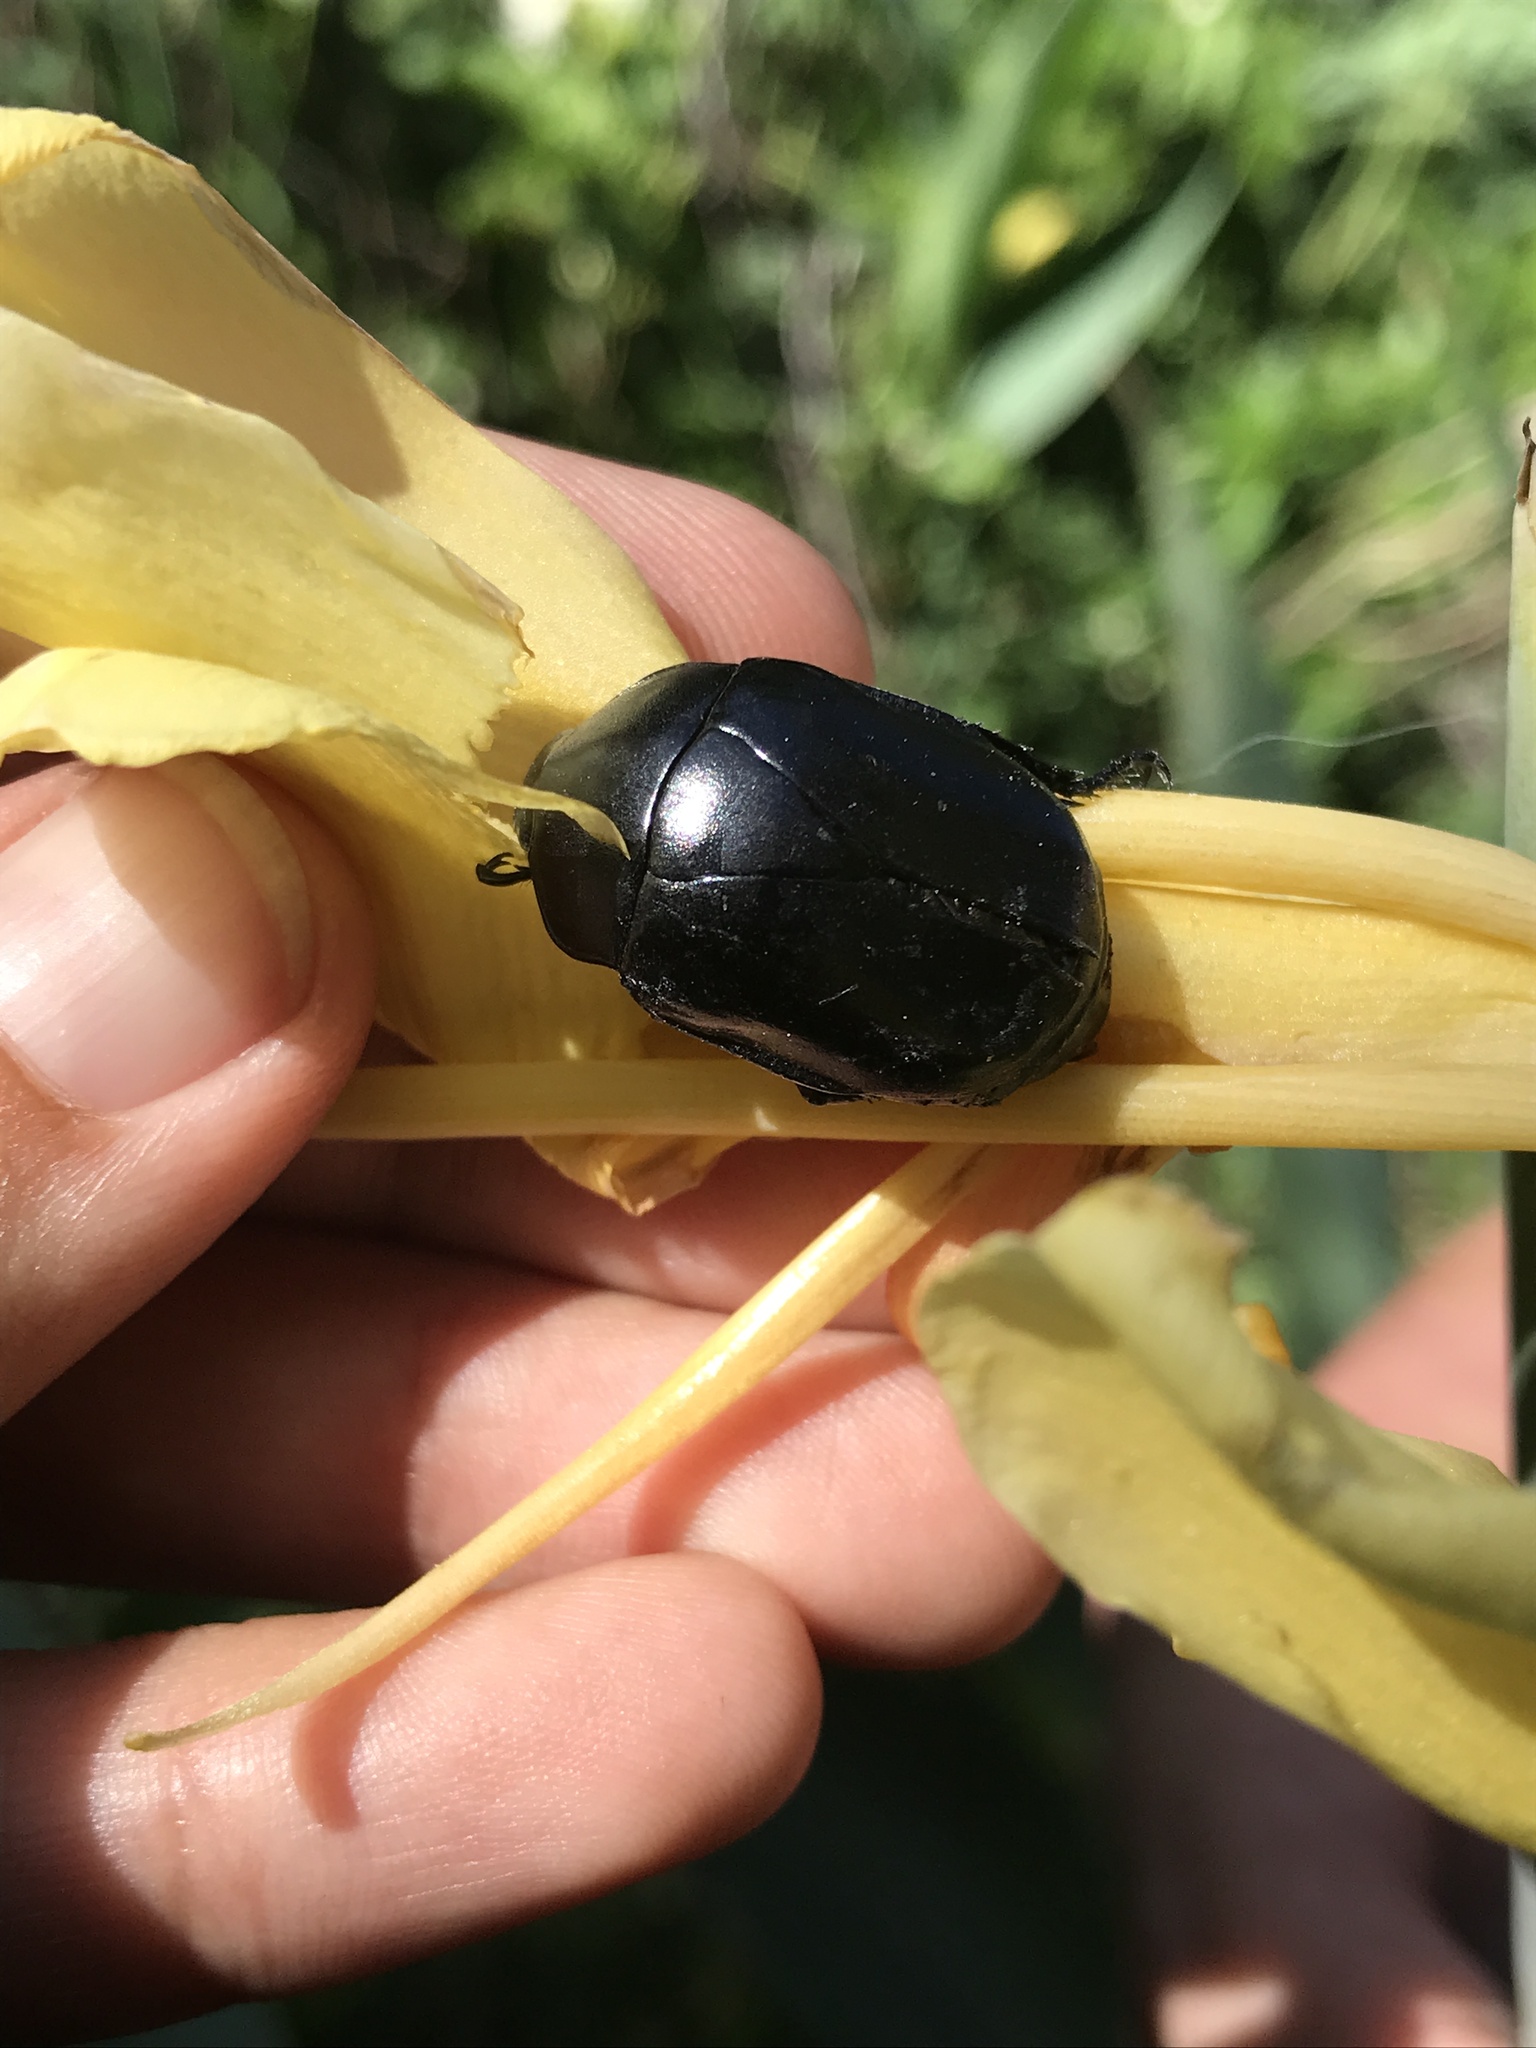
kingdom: Animalia
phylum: Arthropoda
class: Insecta
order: Coleoptera
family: Scarabaeidae
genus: Macraspis
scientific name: Macraspis morio
